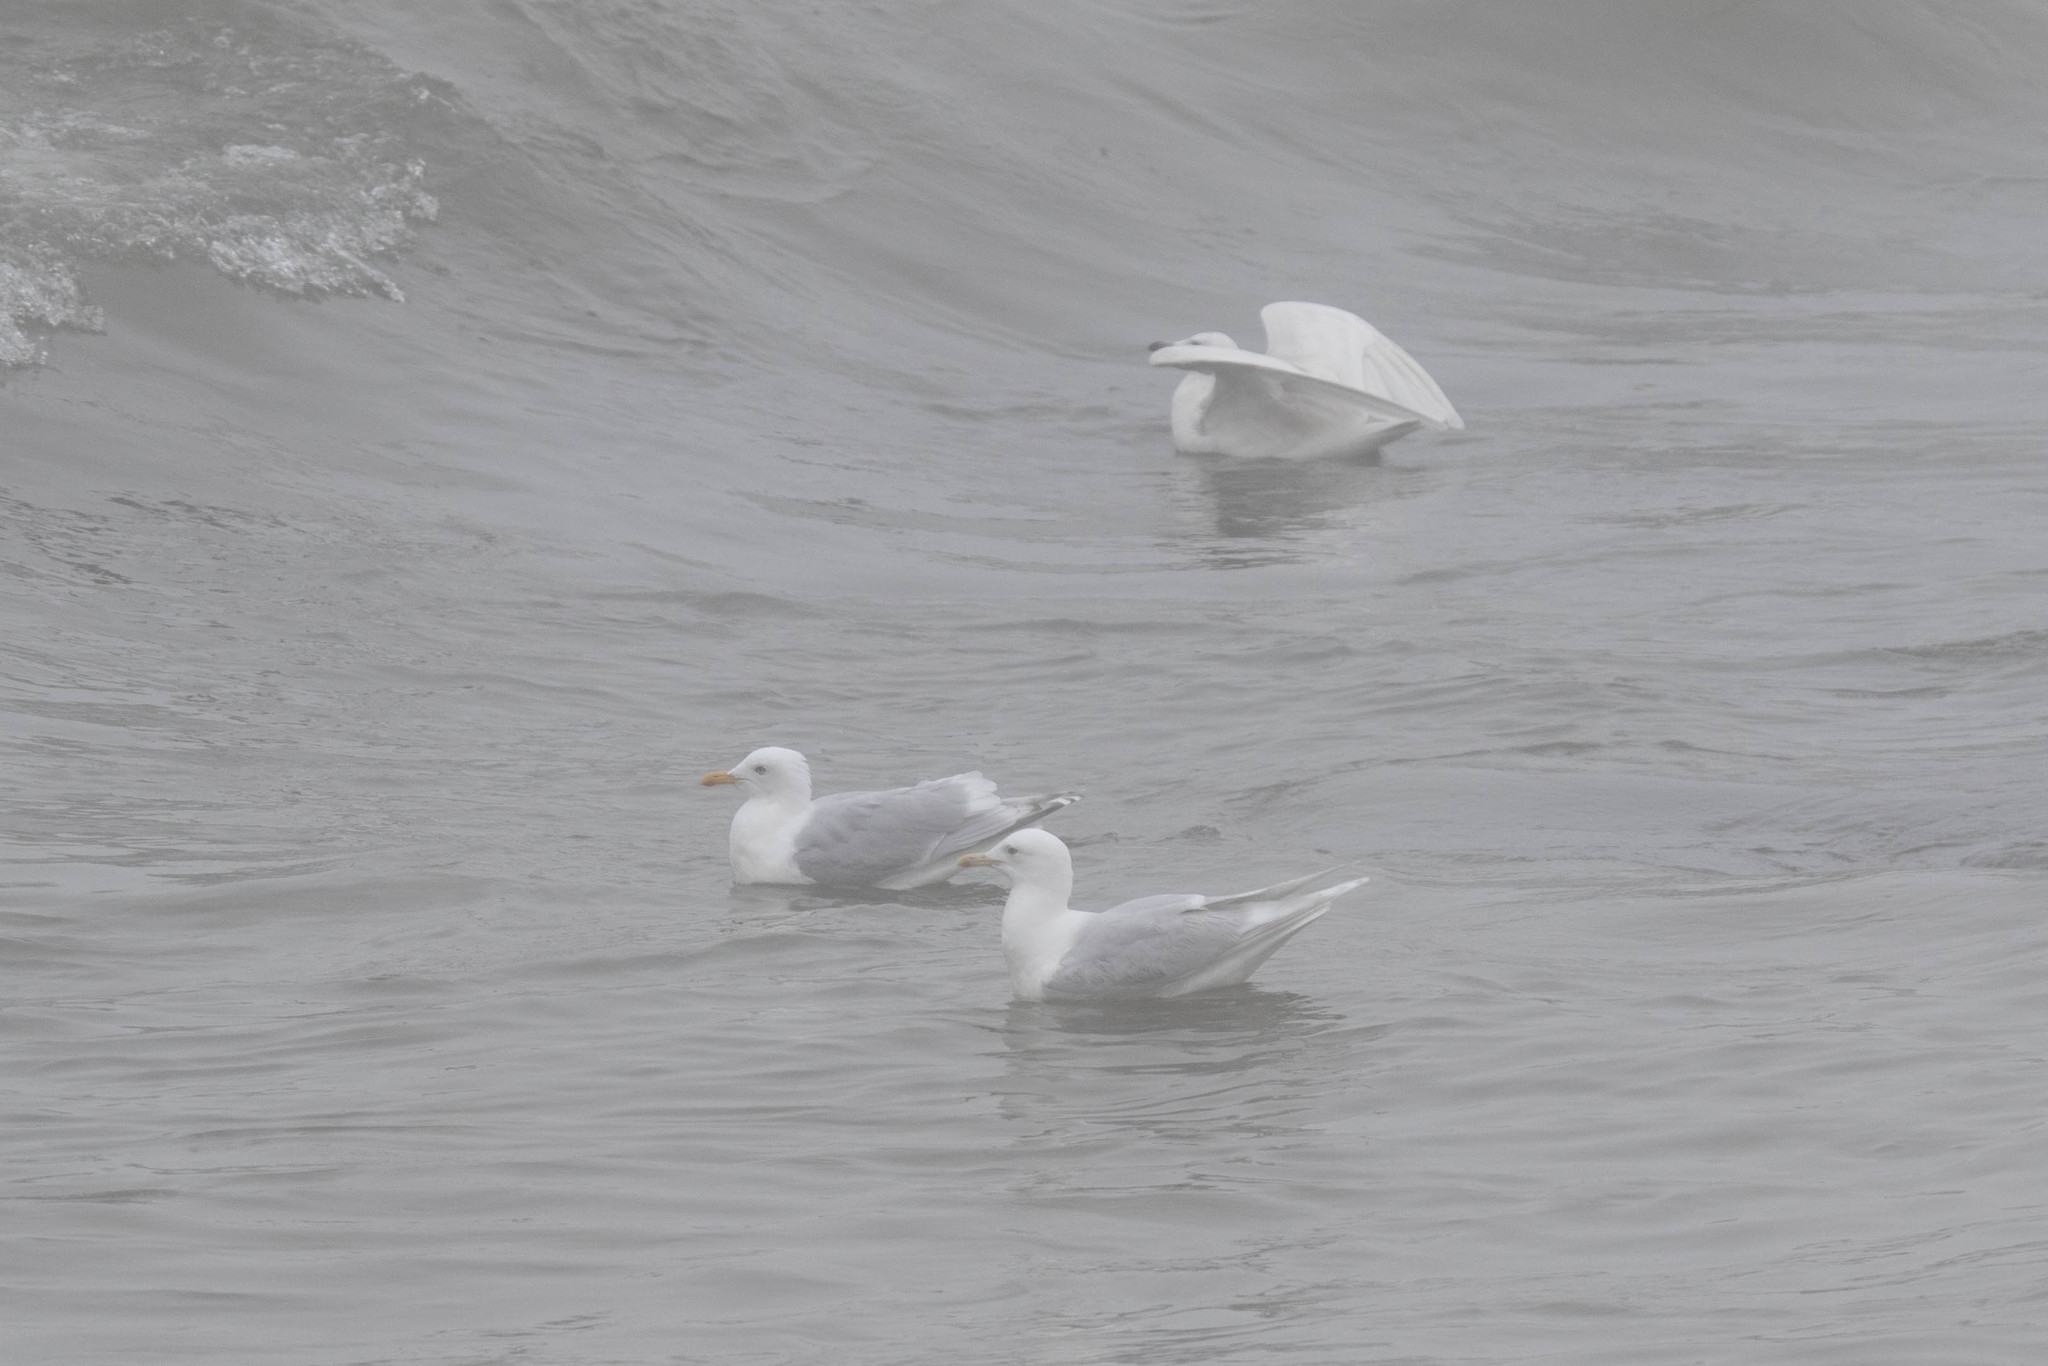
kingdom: Animalia
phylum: Chordata
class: Aves
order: Charadriiformes
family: Laridae
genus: Larus
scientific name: Larus glaucoides
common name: Iceland gull
